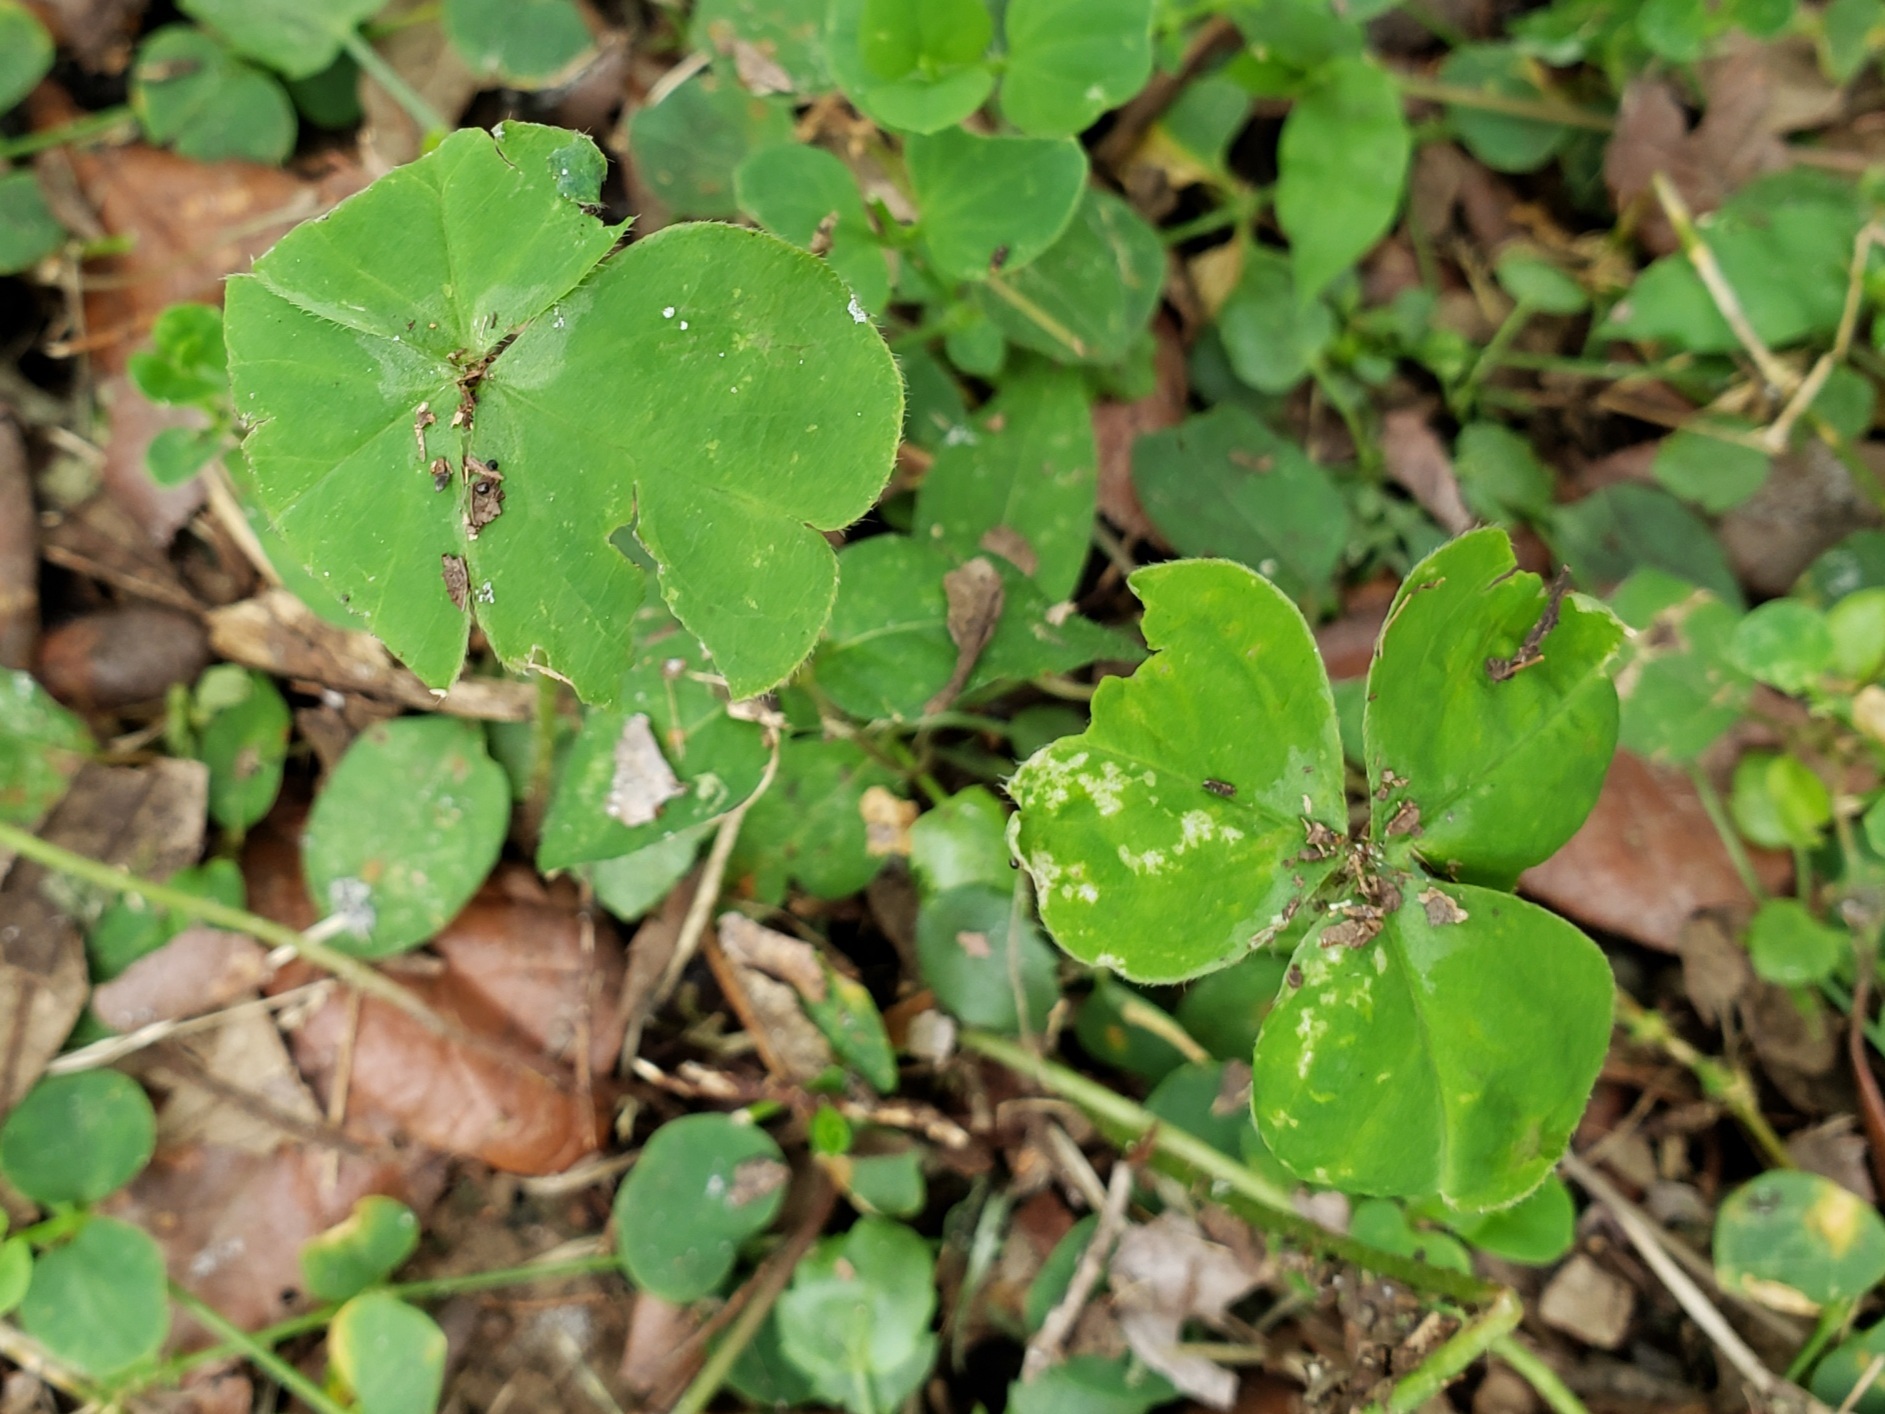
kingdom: Plantae
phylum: Tracheophyta
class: Magnoliopsida
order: Oxalidales
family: Oxalidaceae
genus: Oxalis
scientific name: Oxalis debilis
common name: Large-flowered pink-sorrel
